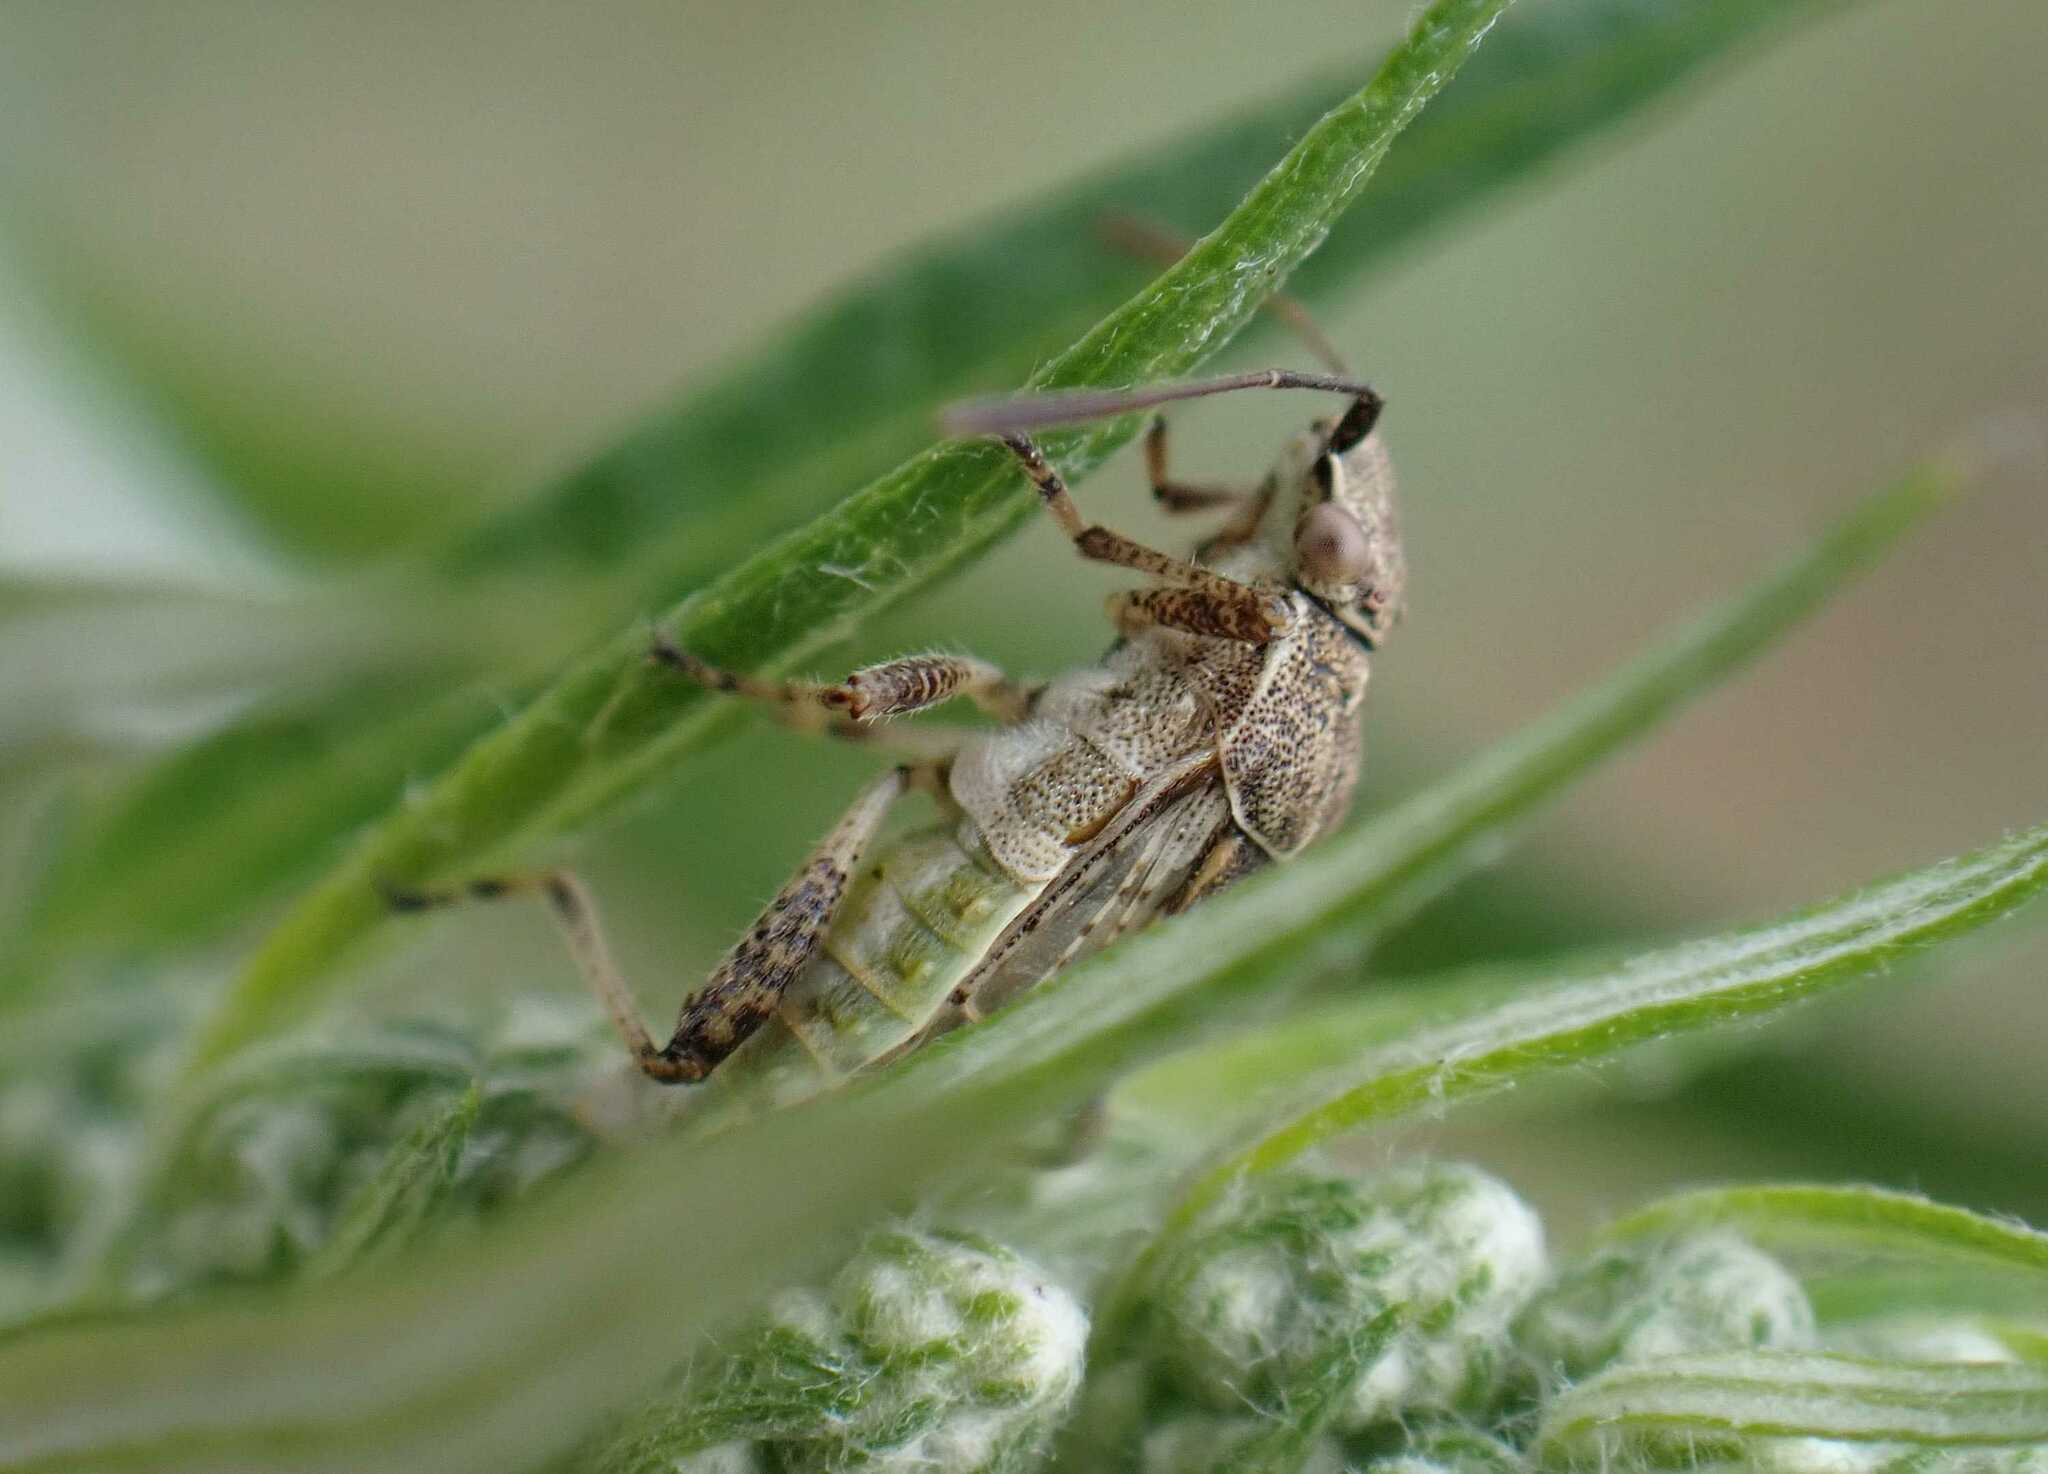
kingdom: Animalia
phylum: Arthropoda
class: Insecta
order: Hemiptera
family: Rhopalidae
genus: Stictopleurus
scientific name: Stictopleurus punctatonervosus
